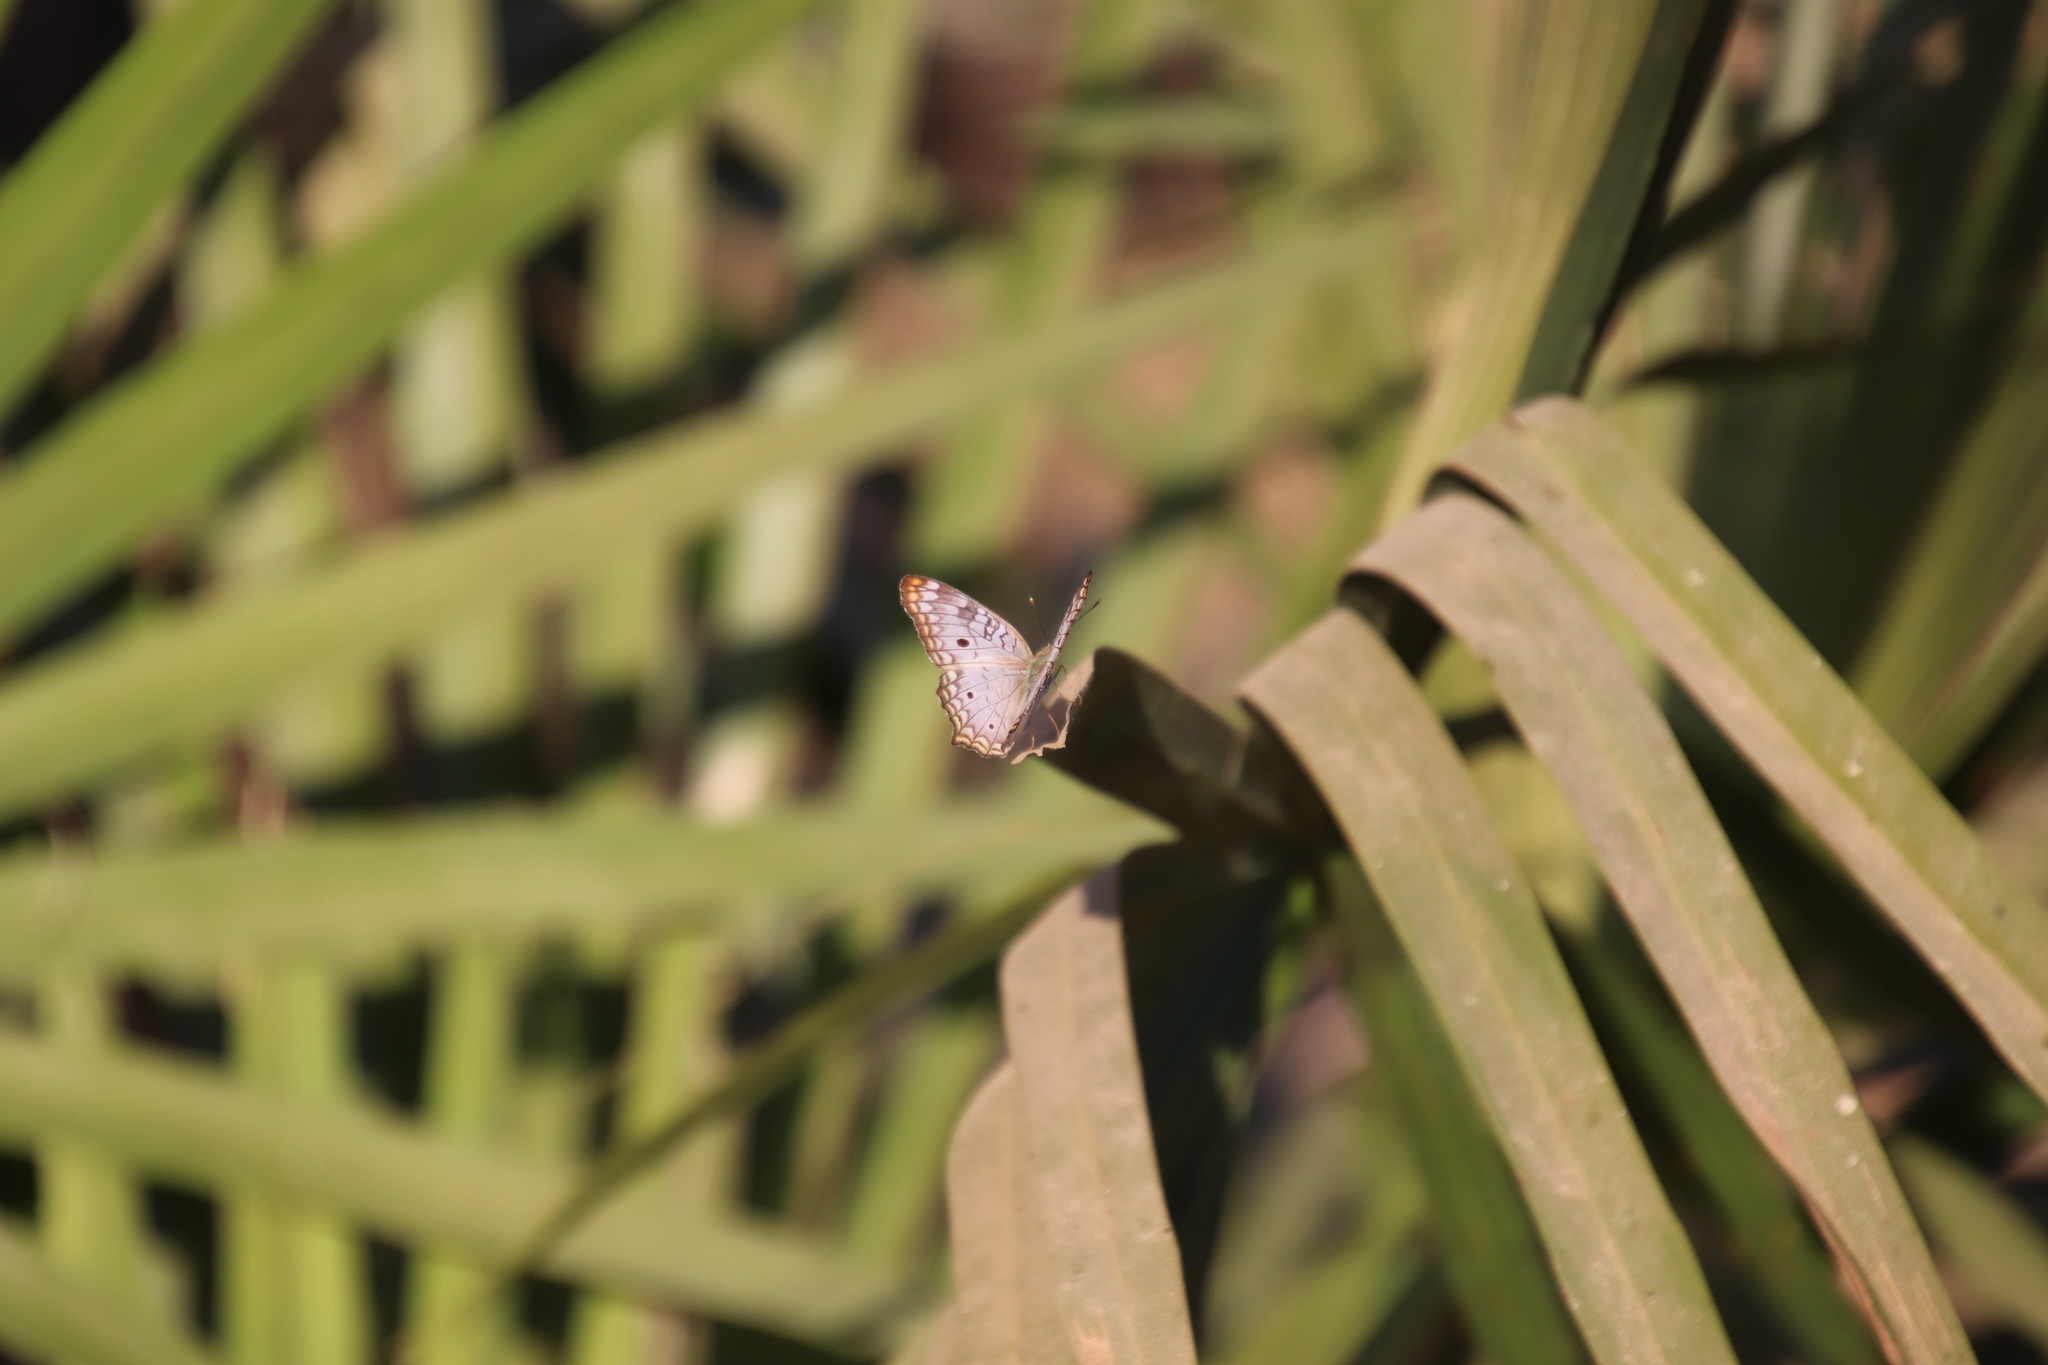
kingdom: Animalia
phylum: Arthropoda
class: Insecta
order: Lepidoptera
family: Nymphalidae
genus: Anartia
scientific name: Anartia jatrophae
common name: White peacock
